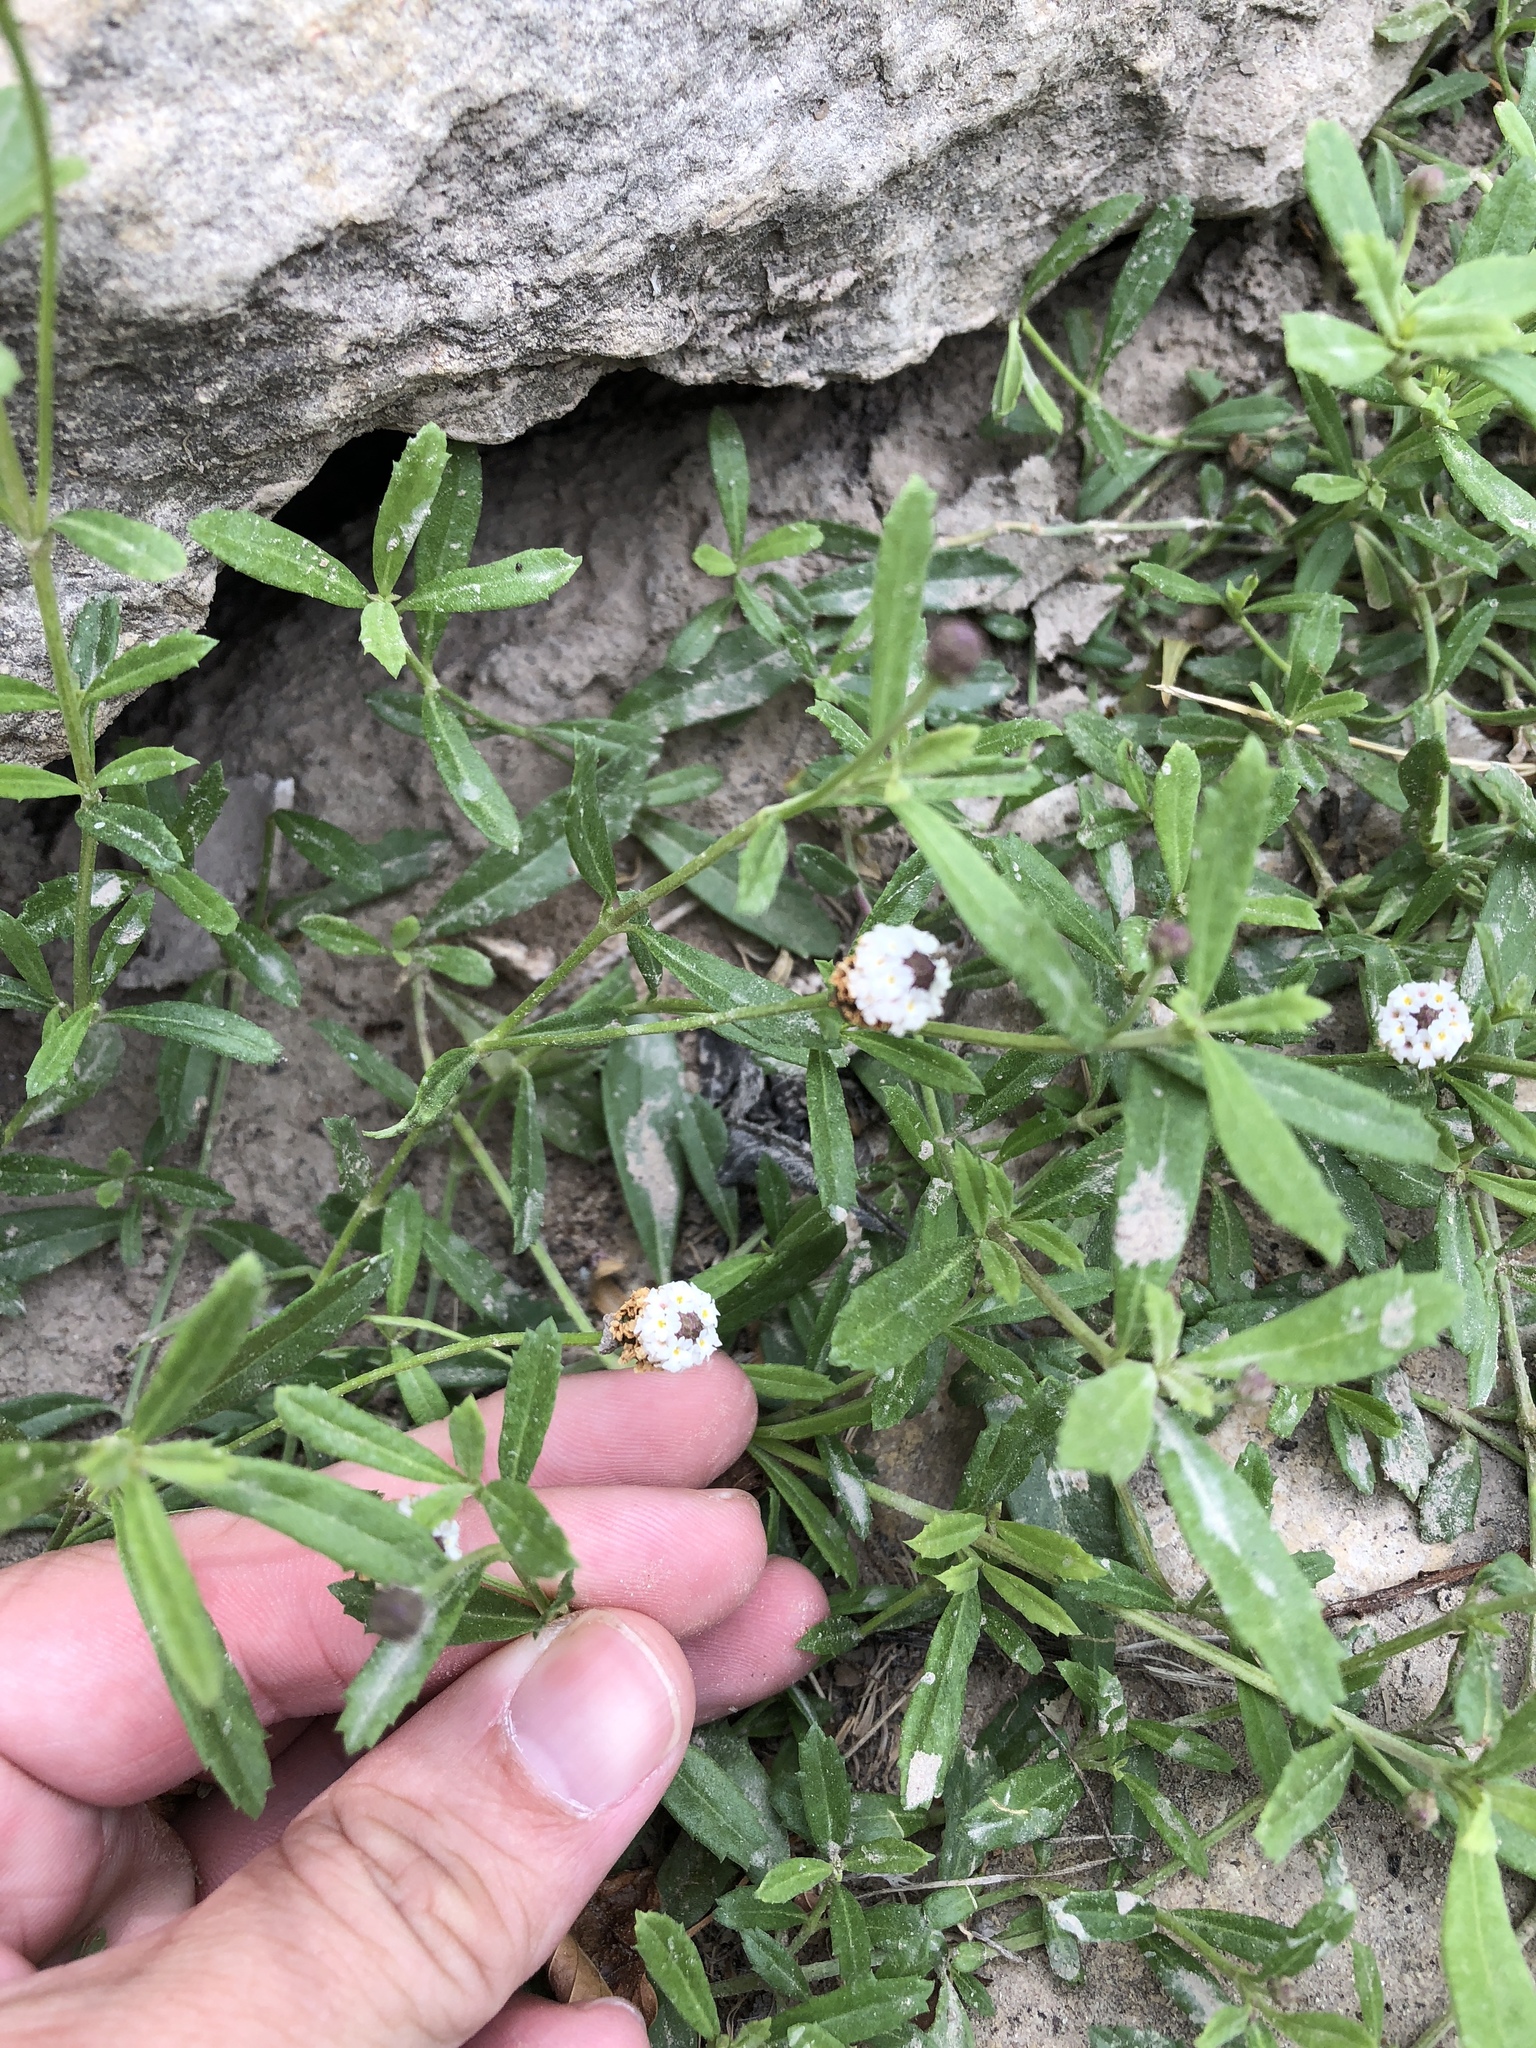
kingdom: Plantae
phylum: Tracheophyta
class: Magnoliopsida
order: Lamiales
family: Verbenaceae
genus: Phyla
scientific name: Phyla nodiflora
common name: Frogfruit
